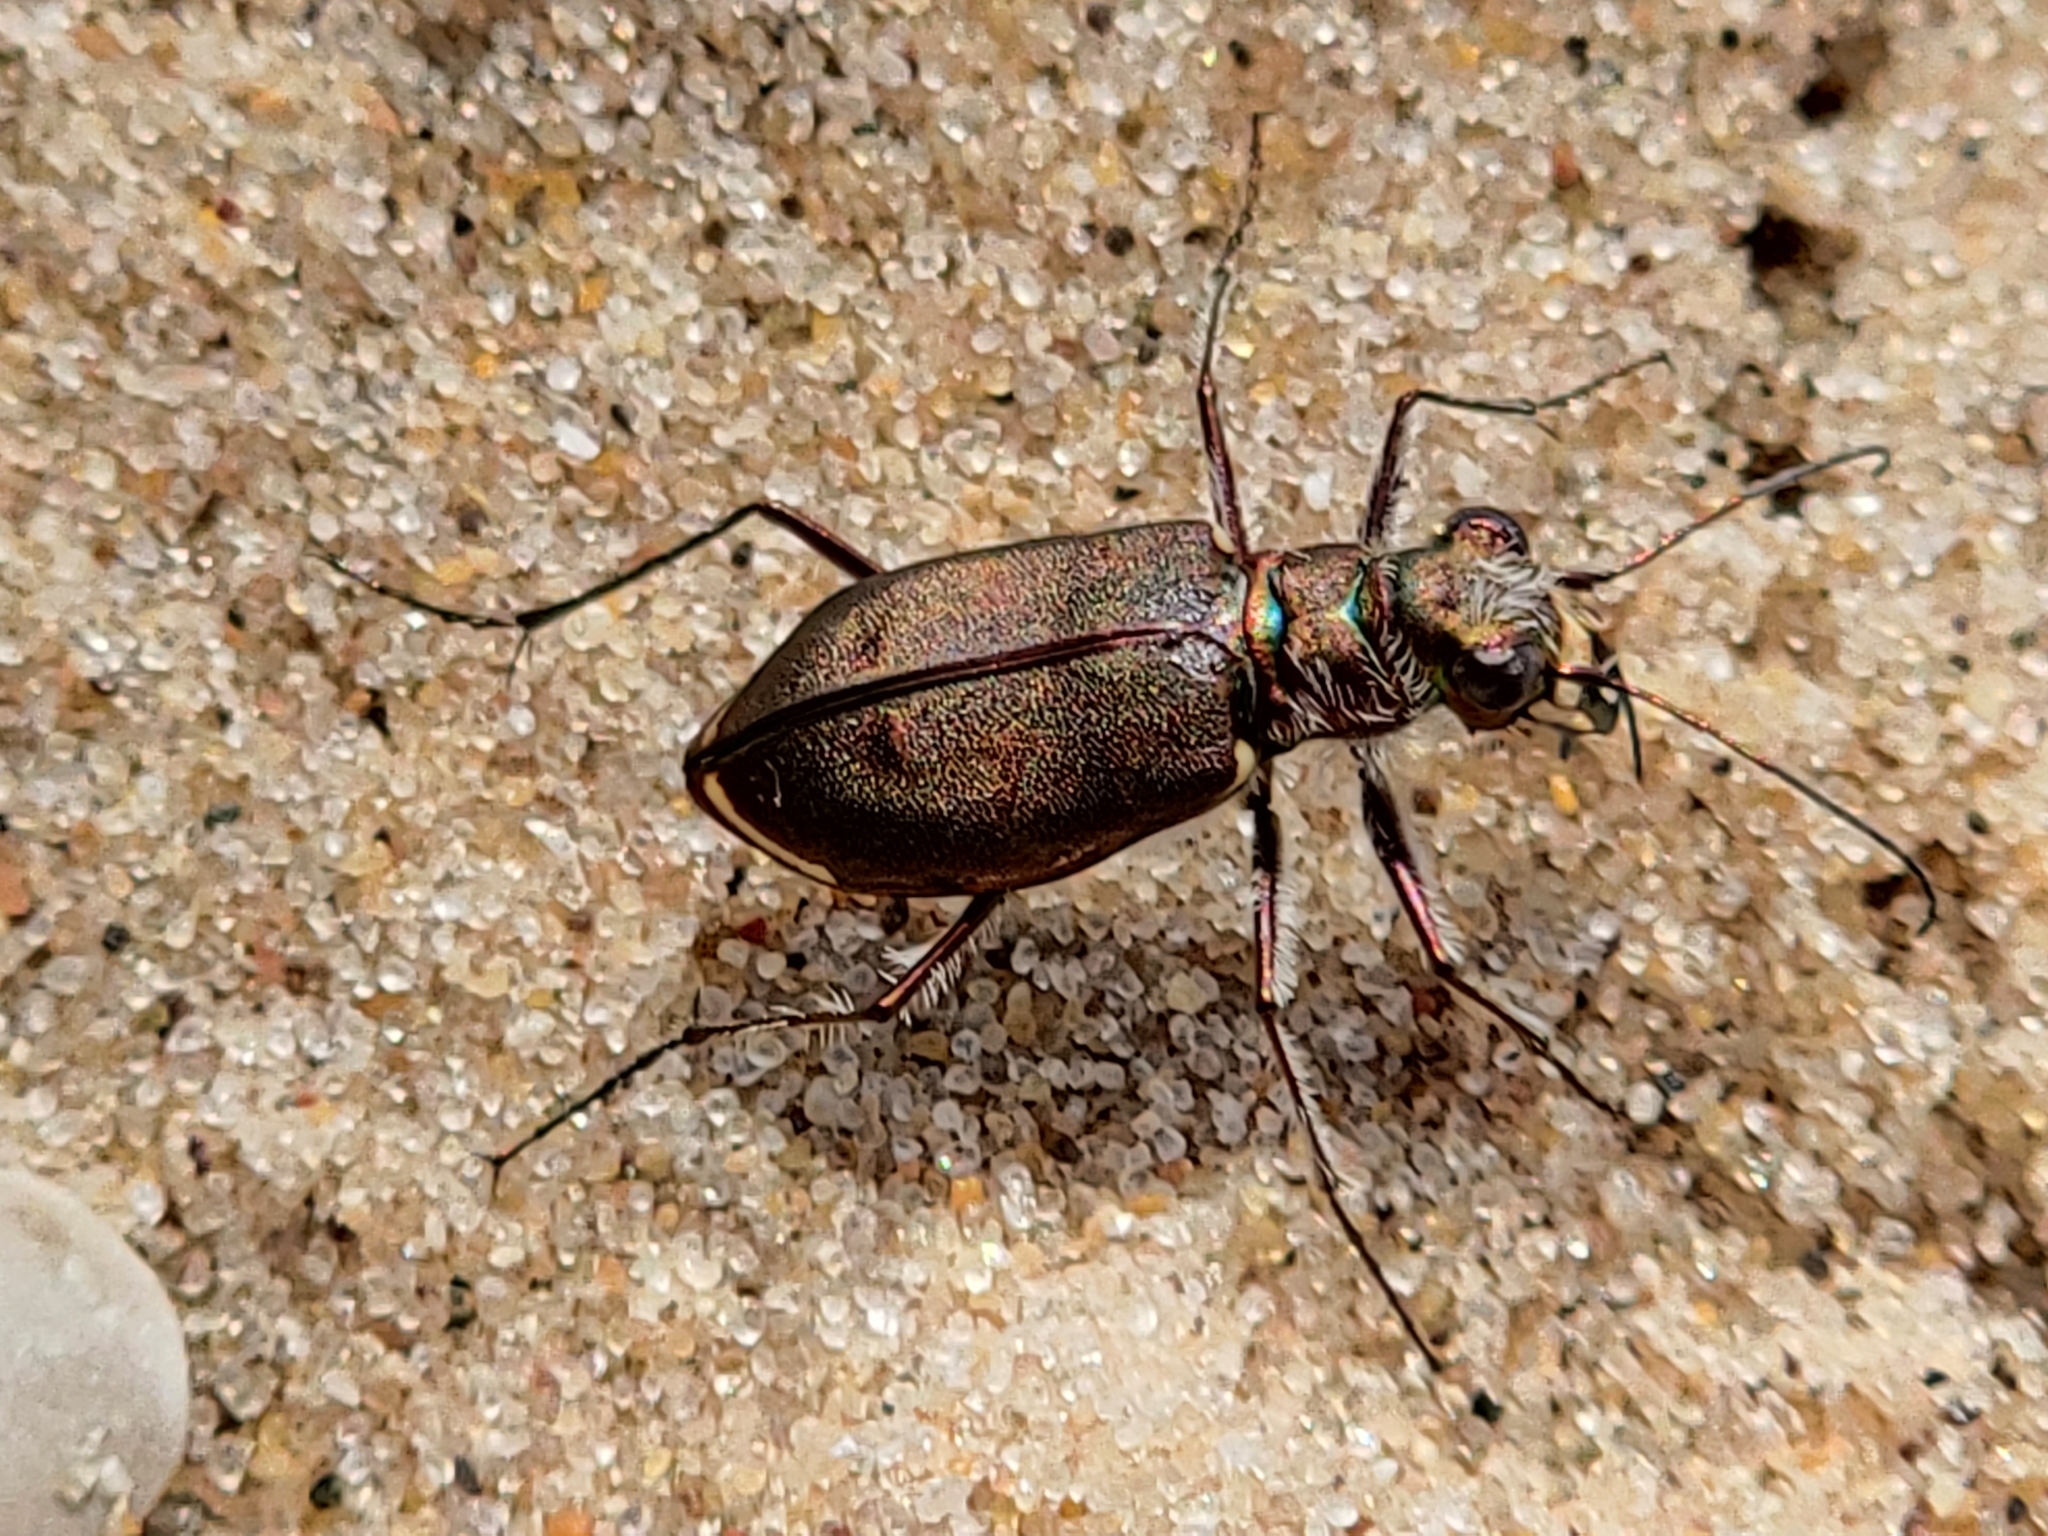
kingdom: Animalia
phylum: Arthropoda
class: Insecta
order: Coleoptera
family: Carabidae
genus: Cicindela
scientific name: Cicindela hirticollis
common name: Hairy-necked tiger beetle
